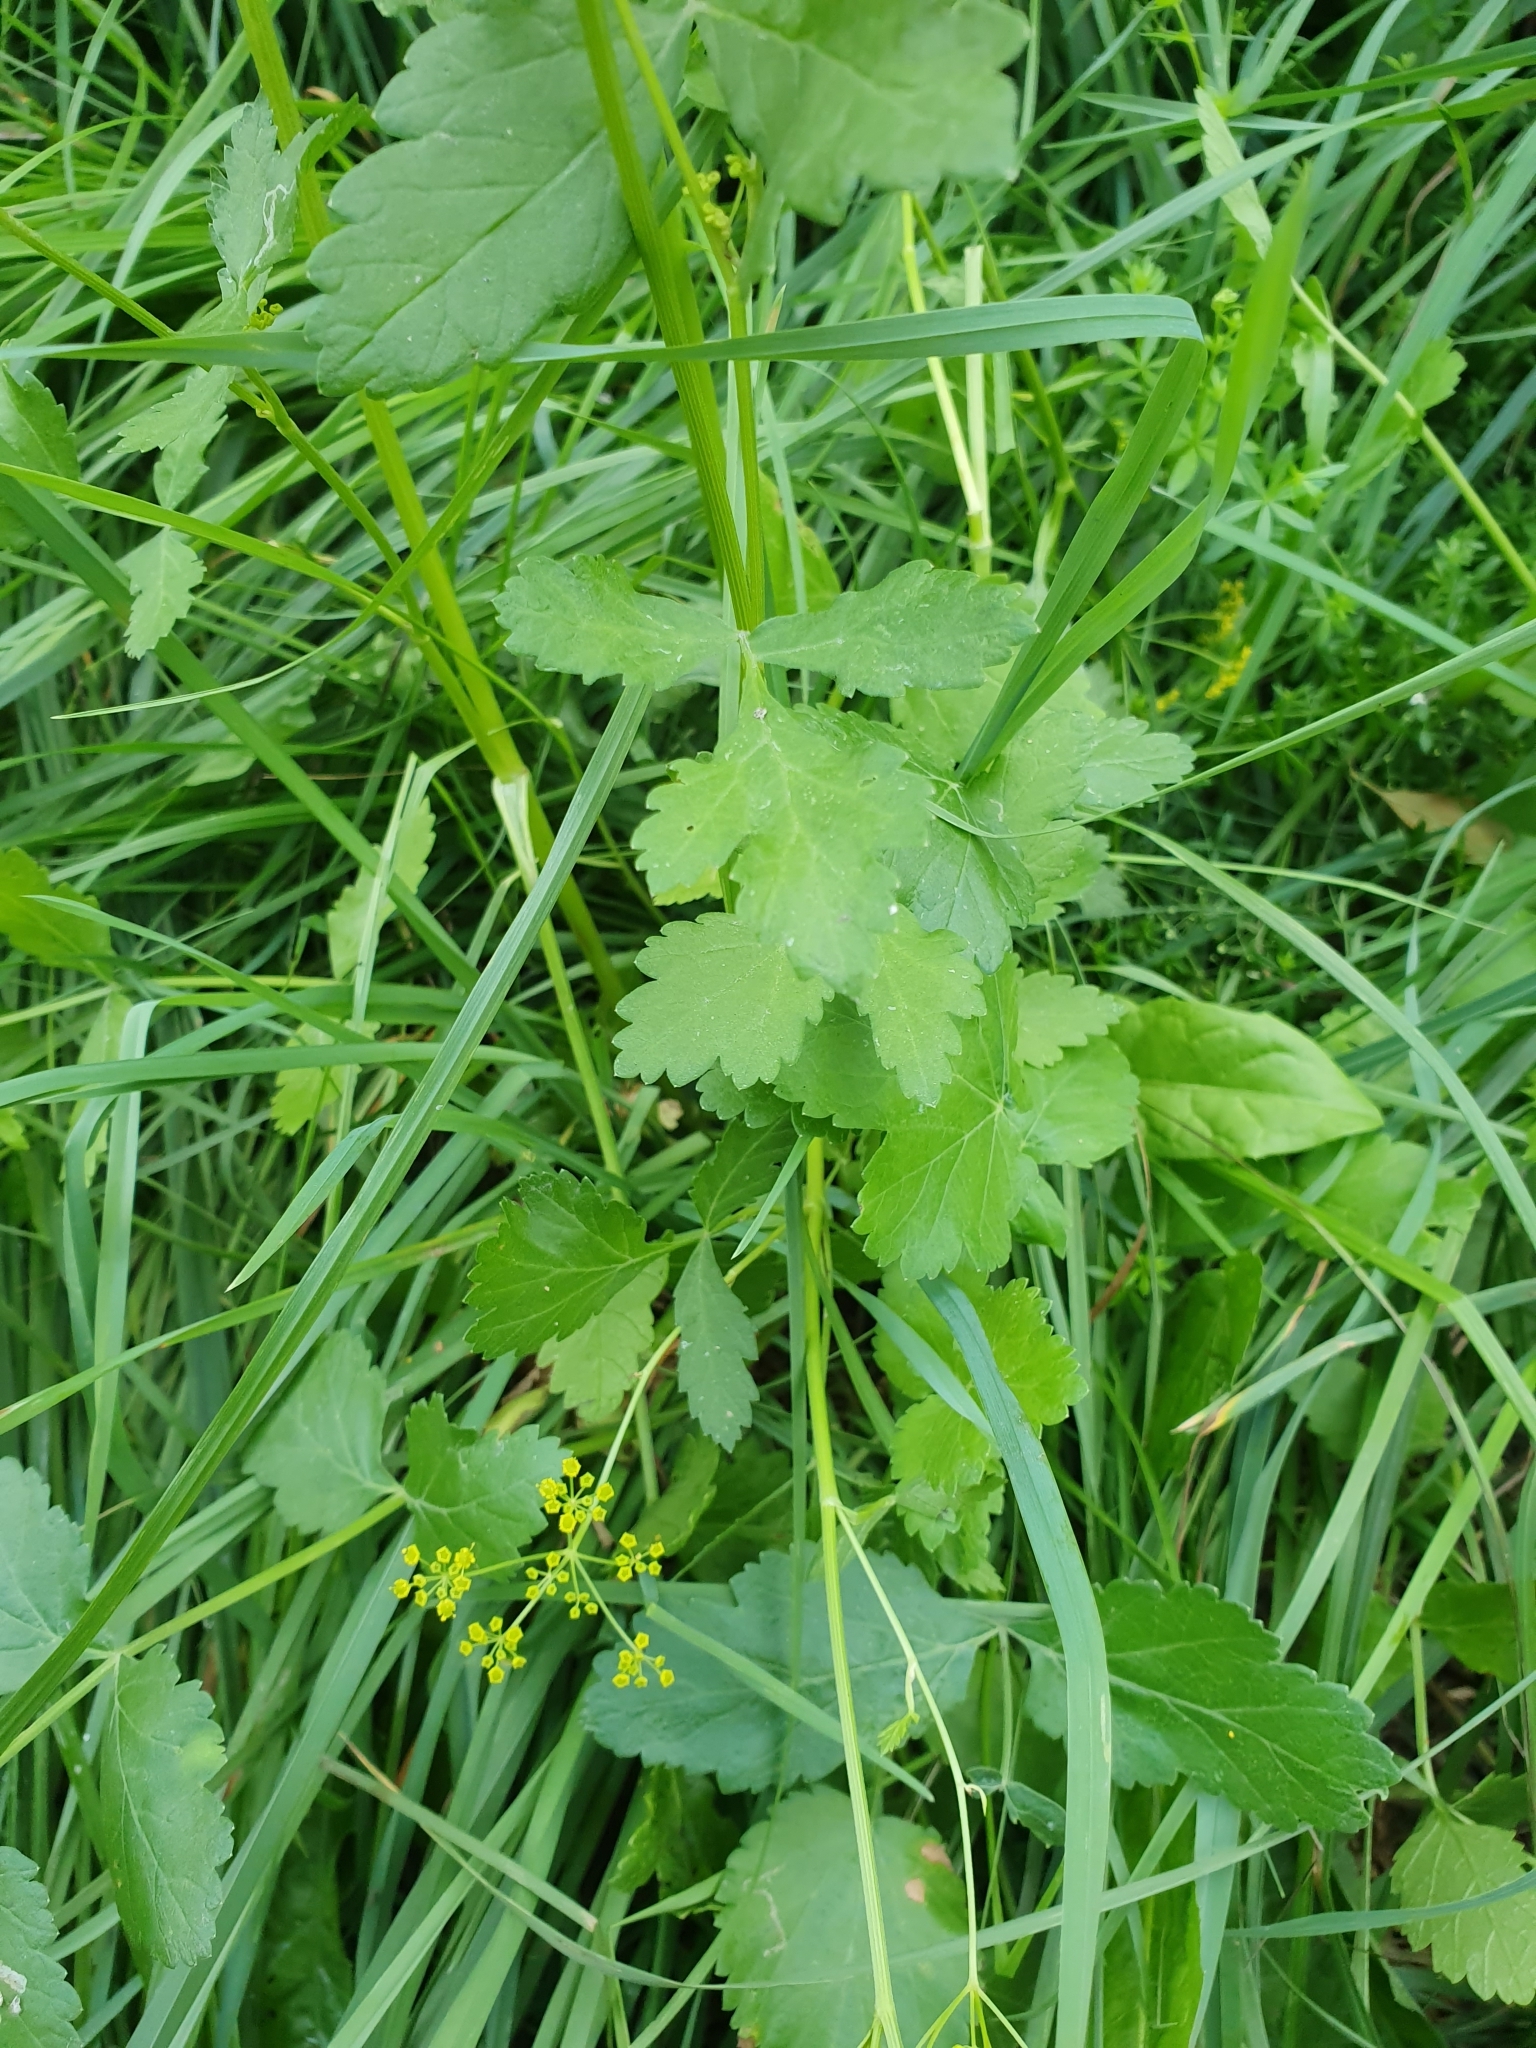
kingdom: Plantae
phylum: Tracheophyta
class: Magnoliopsida
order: Apiales
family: Apiaceae
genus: Pastinaca
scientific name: Pastinaca sativa
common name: Wild parsnip
